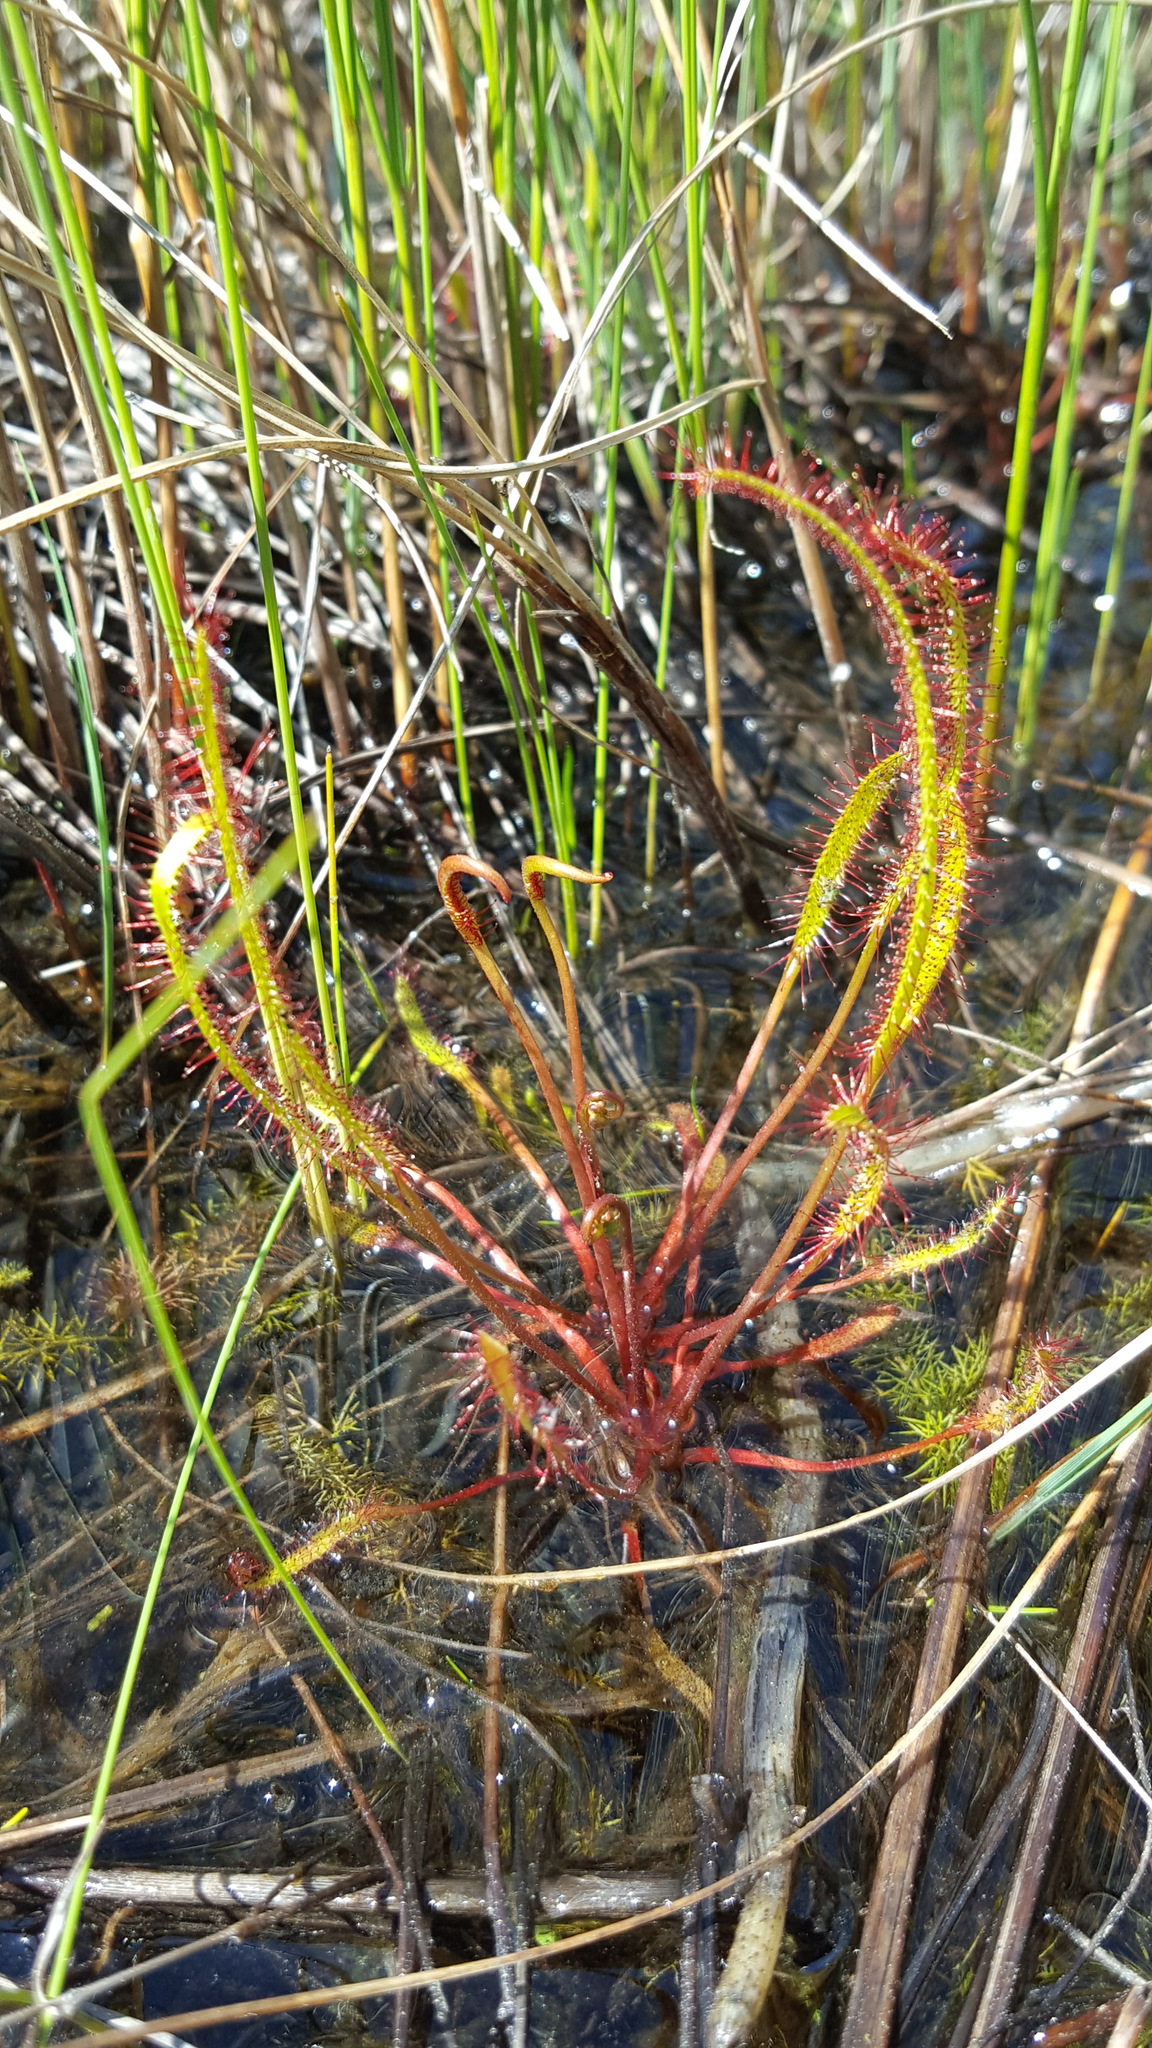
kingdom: Plantae
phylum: Tracheophyta
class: Magnoliopsida
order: Caryophyllales
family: Droseraceae
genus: Drosera
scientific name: Drosera linearis
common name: Linear-leaved sundew
